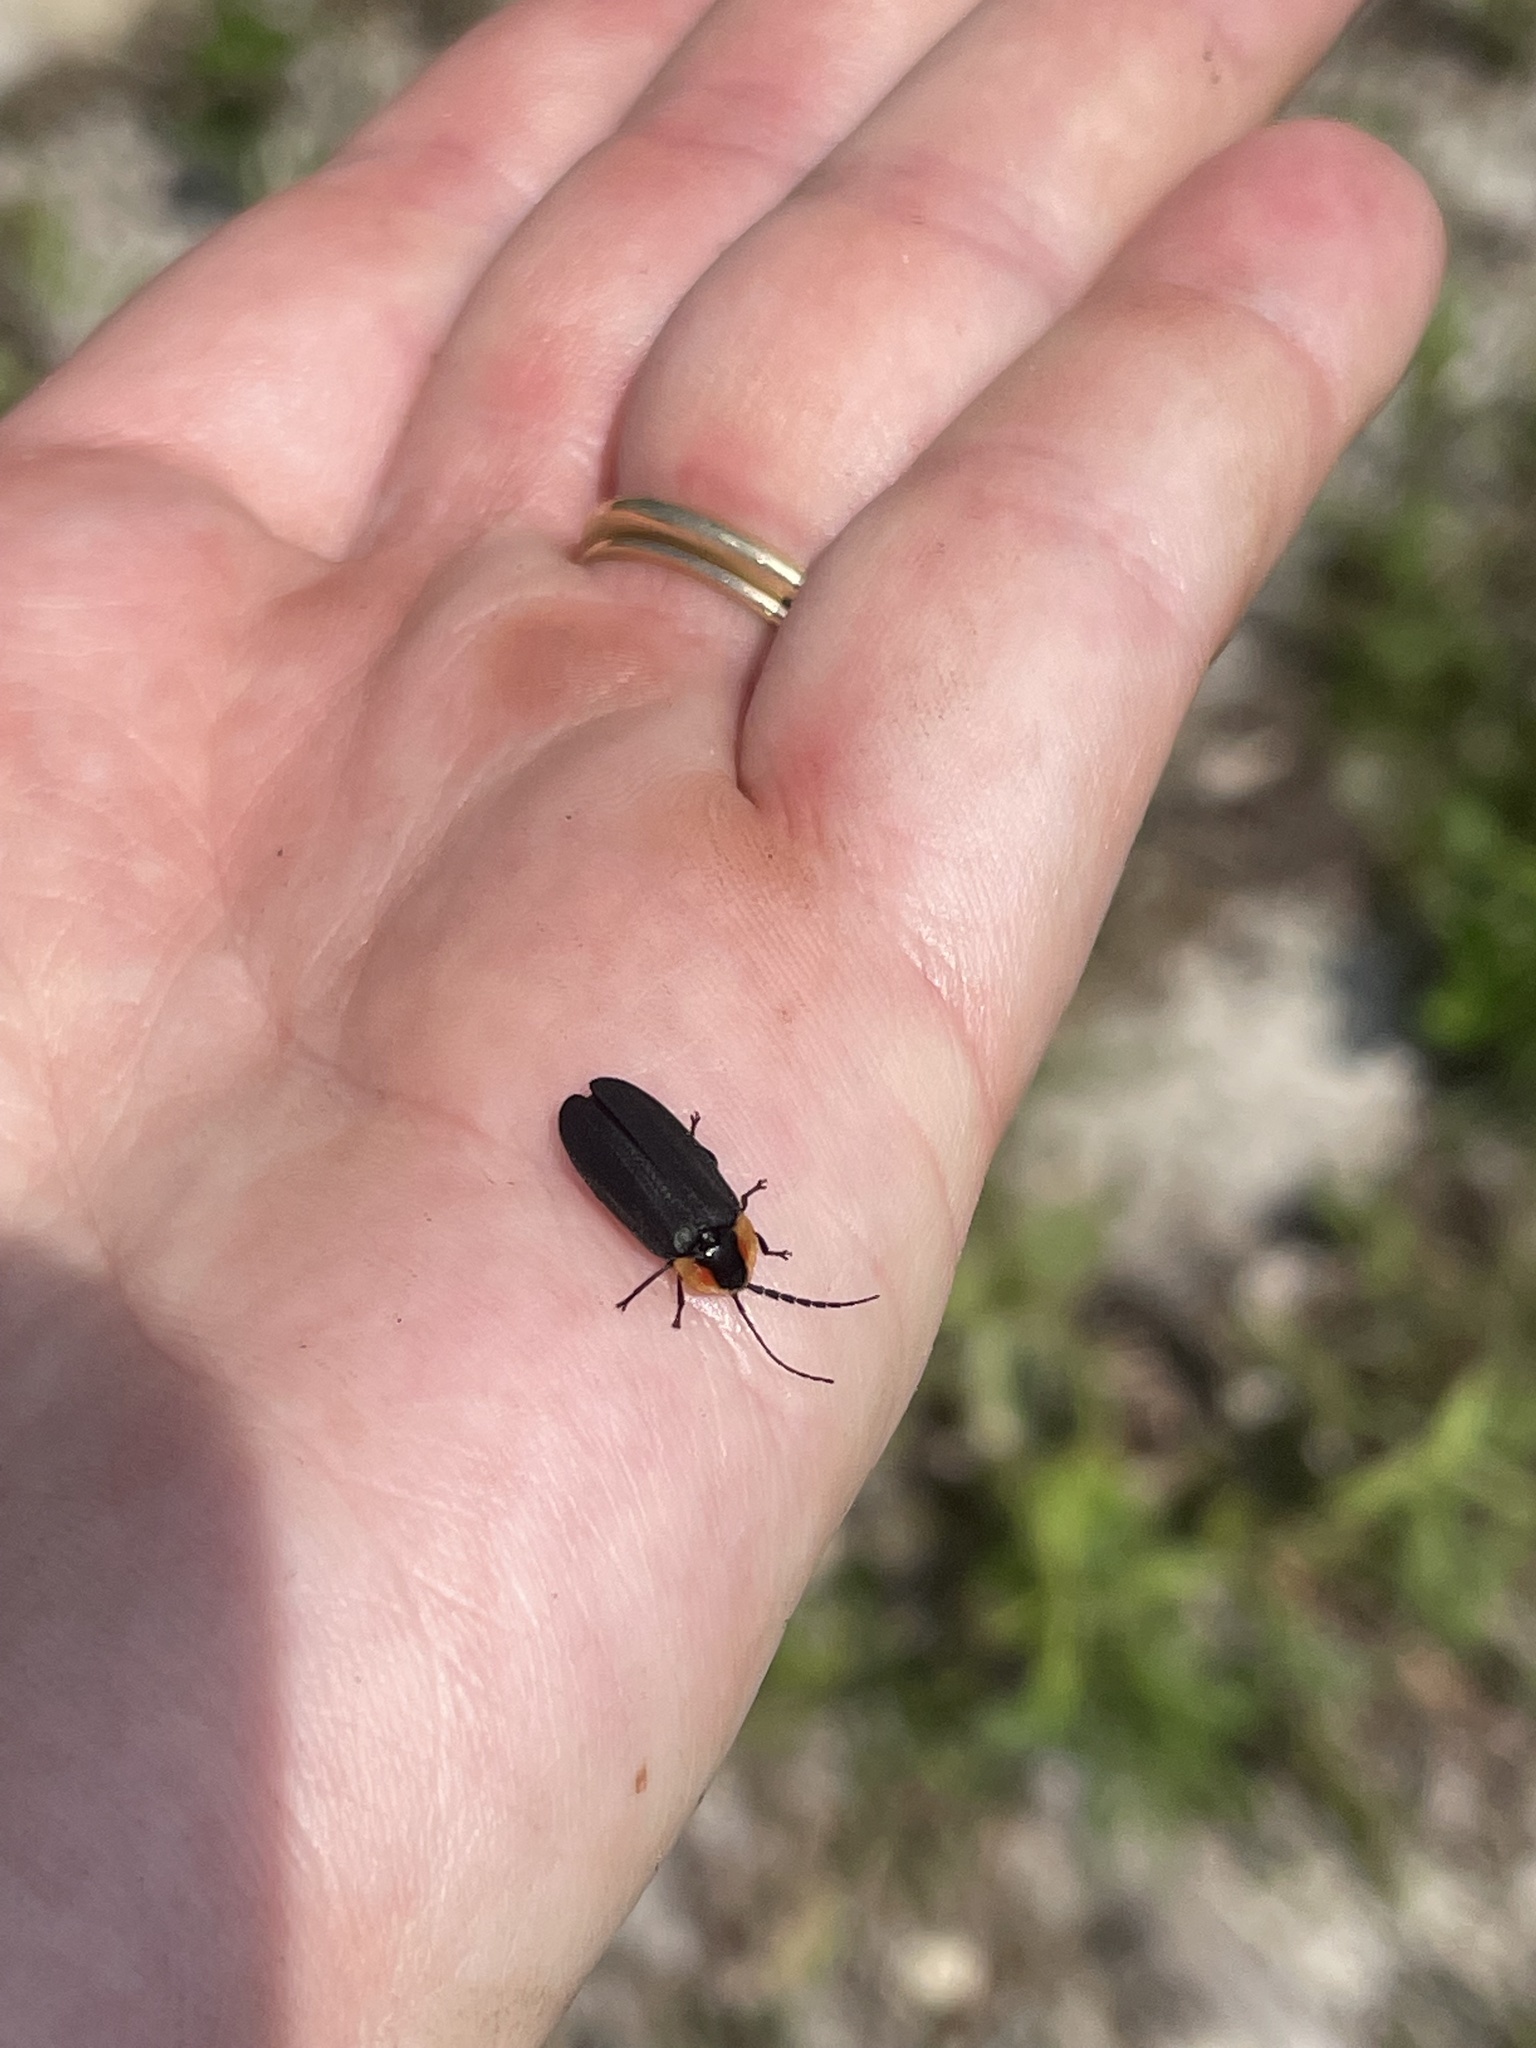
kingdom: Animalia
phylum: Arthropoda
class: Insecta
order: Coleoptera
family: Lampyridae
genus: Lucidota
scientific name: Lucidota atra
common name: Black firefly
